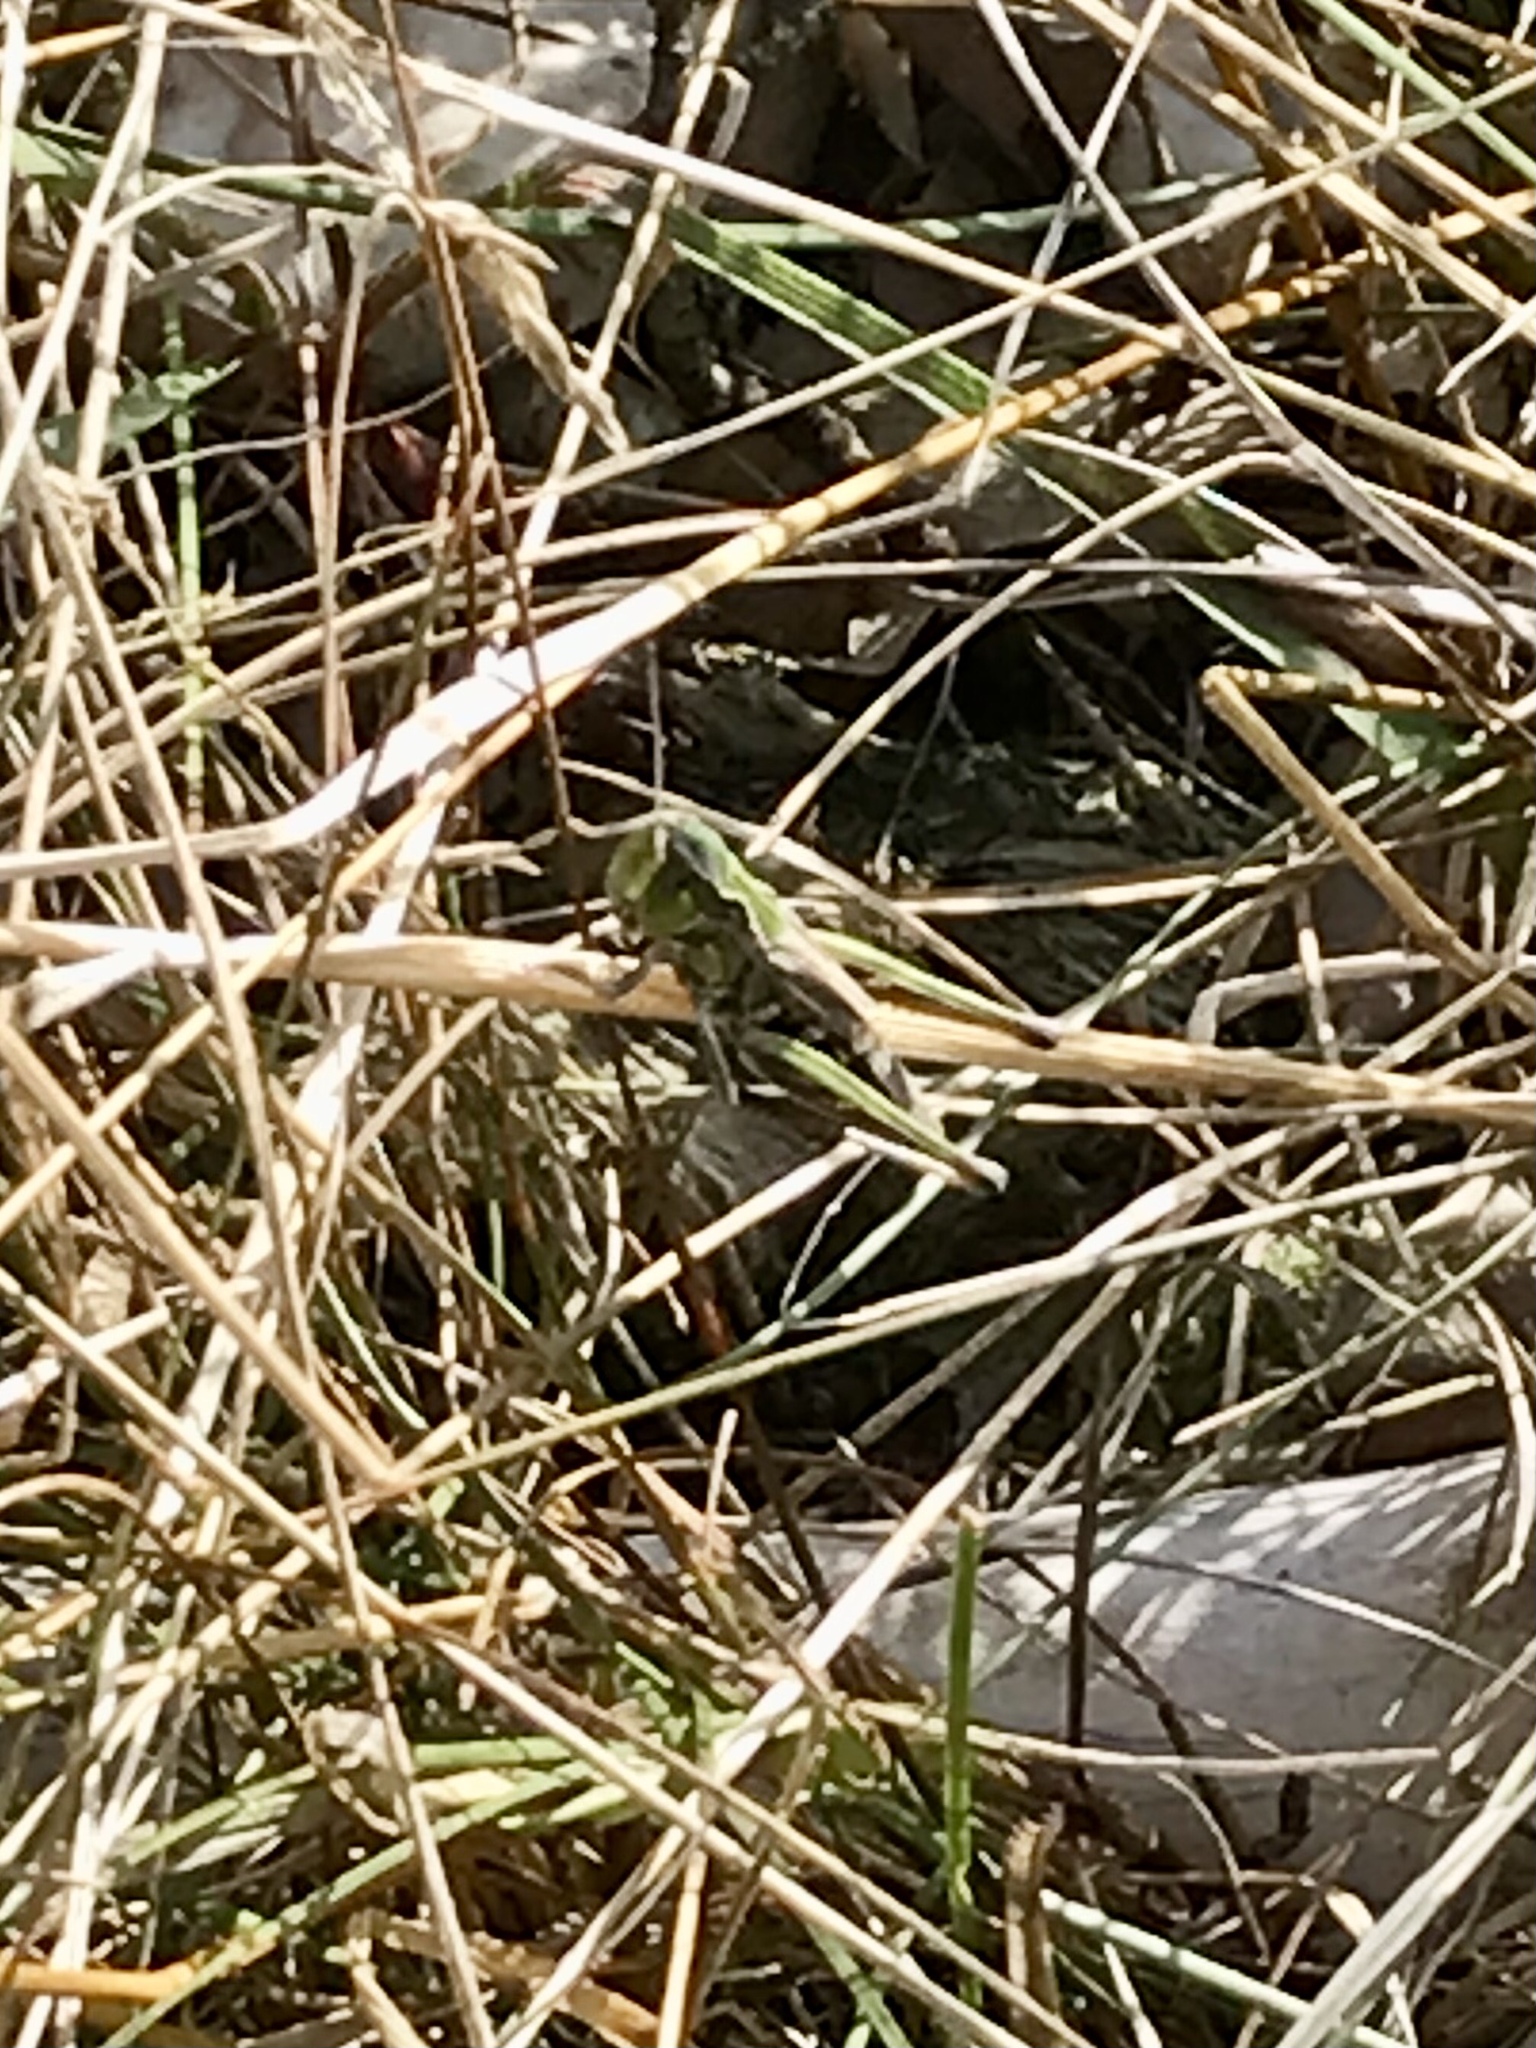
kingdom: Animalia
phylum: Arthropoda
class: Insecta
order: Orthoptera
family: Acrididae
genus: Aeropedellus
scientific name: Aeropedellus clavatus
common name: Clubhorned grasshopper
